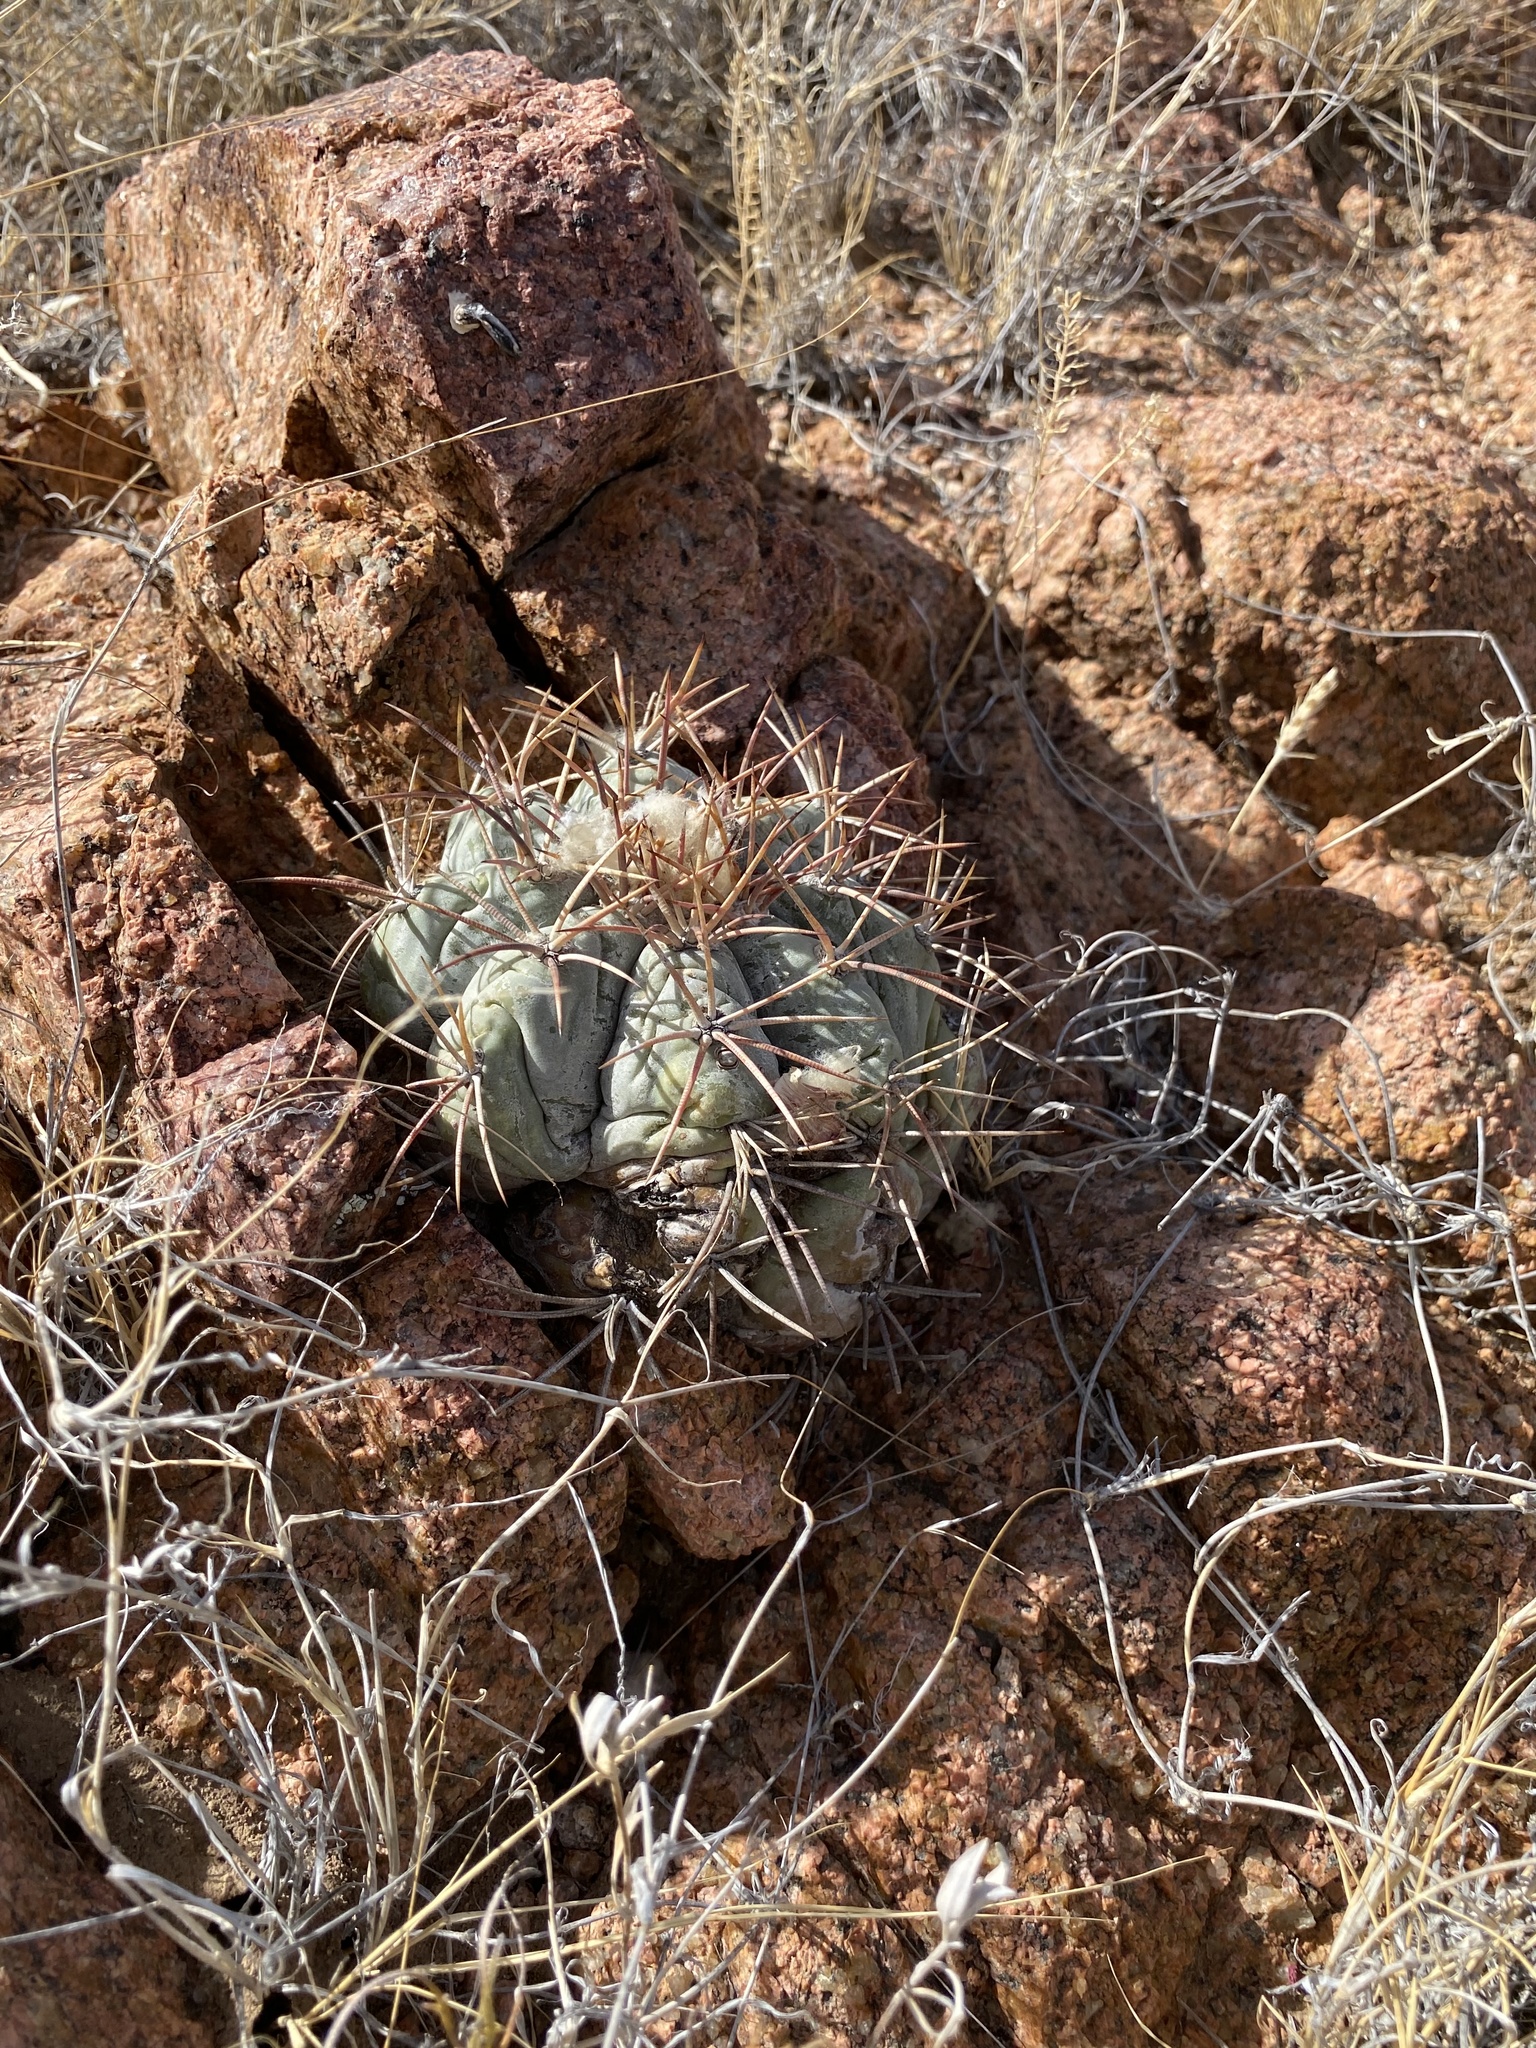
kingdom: Plantae
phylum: Tracheophyta
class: Magnoliopsida
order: Caryophyllales
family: Cactaceae
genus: Echinocactus
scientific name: Echinocactus horizonthalonius
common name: Devilshead
